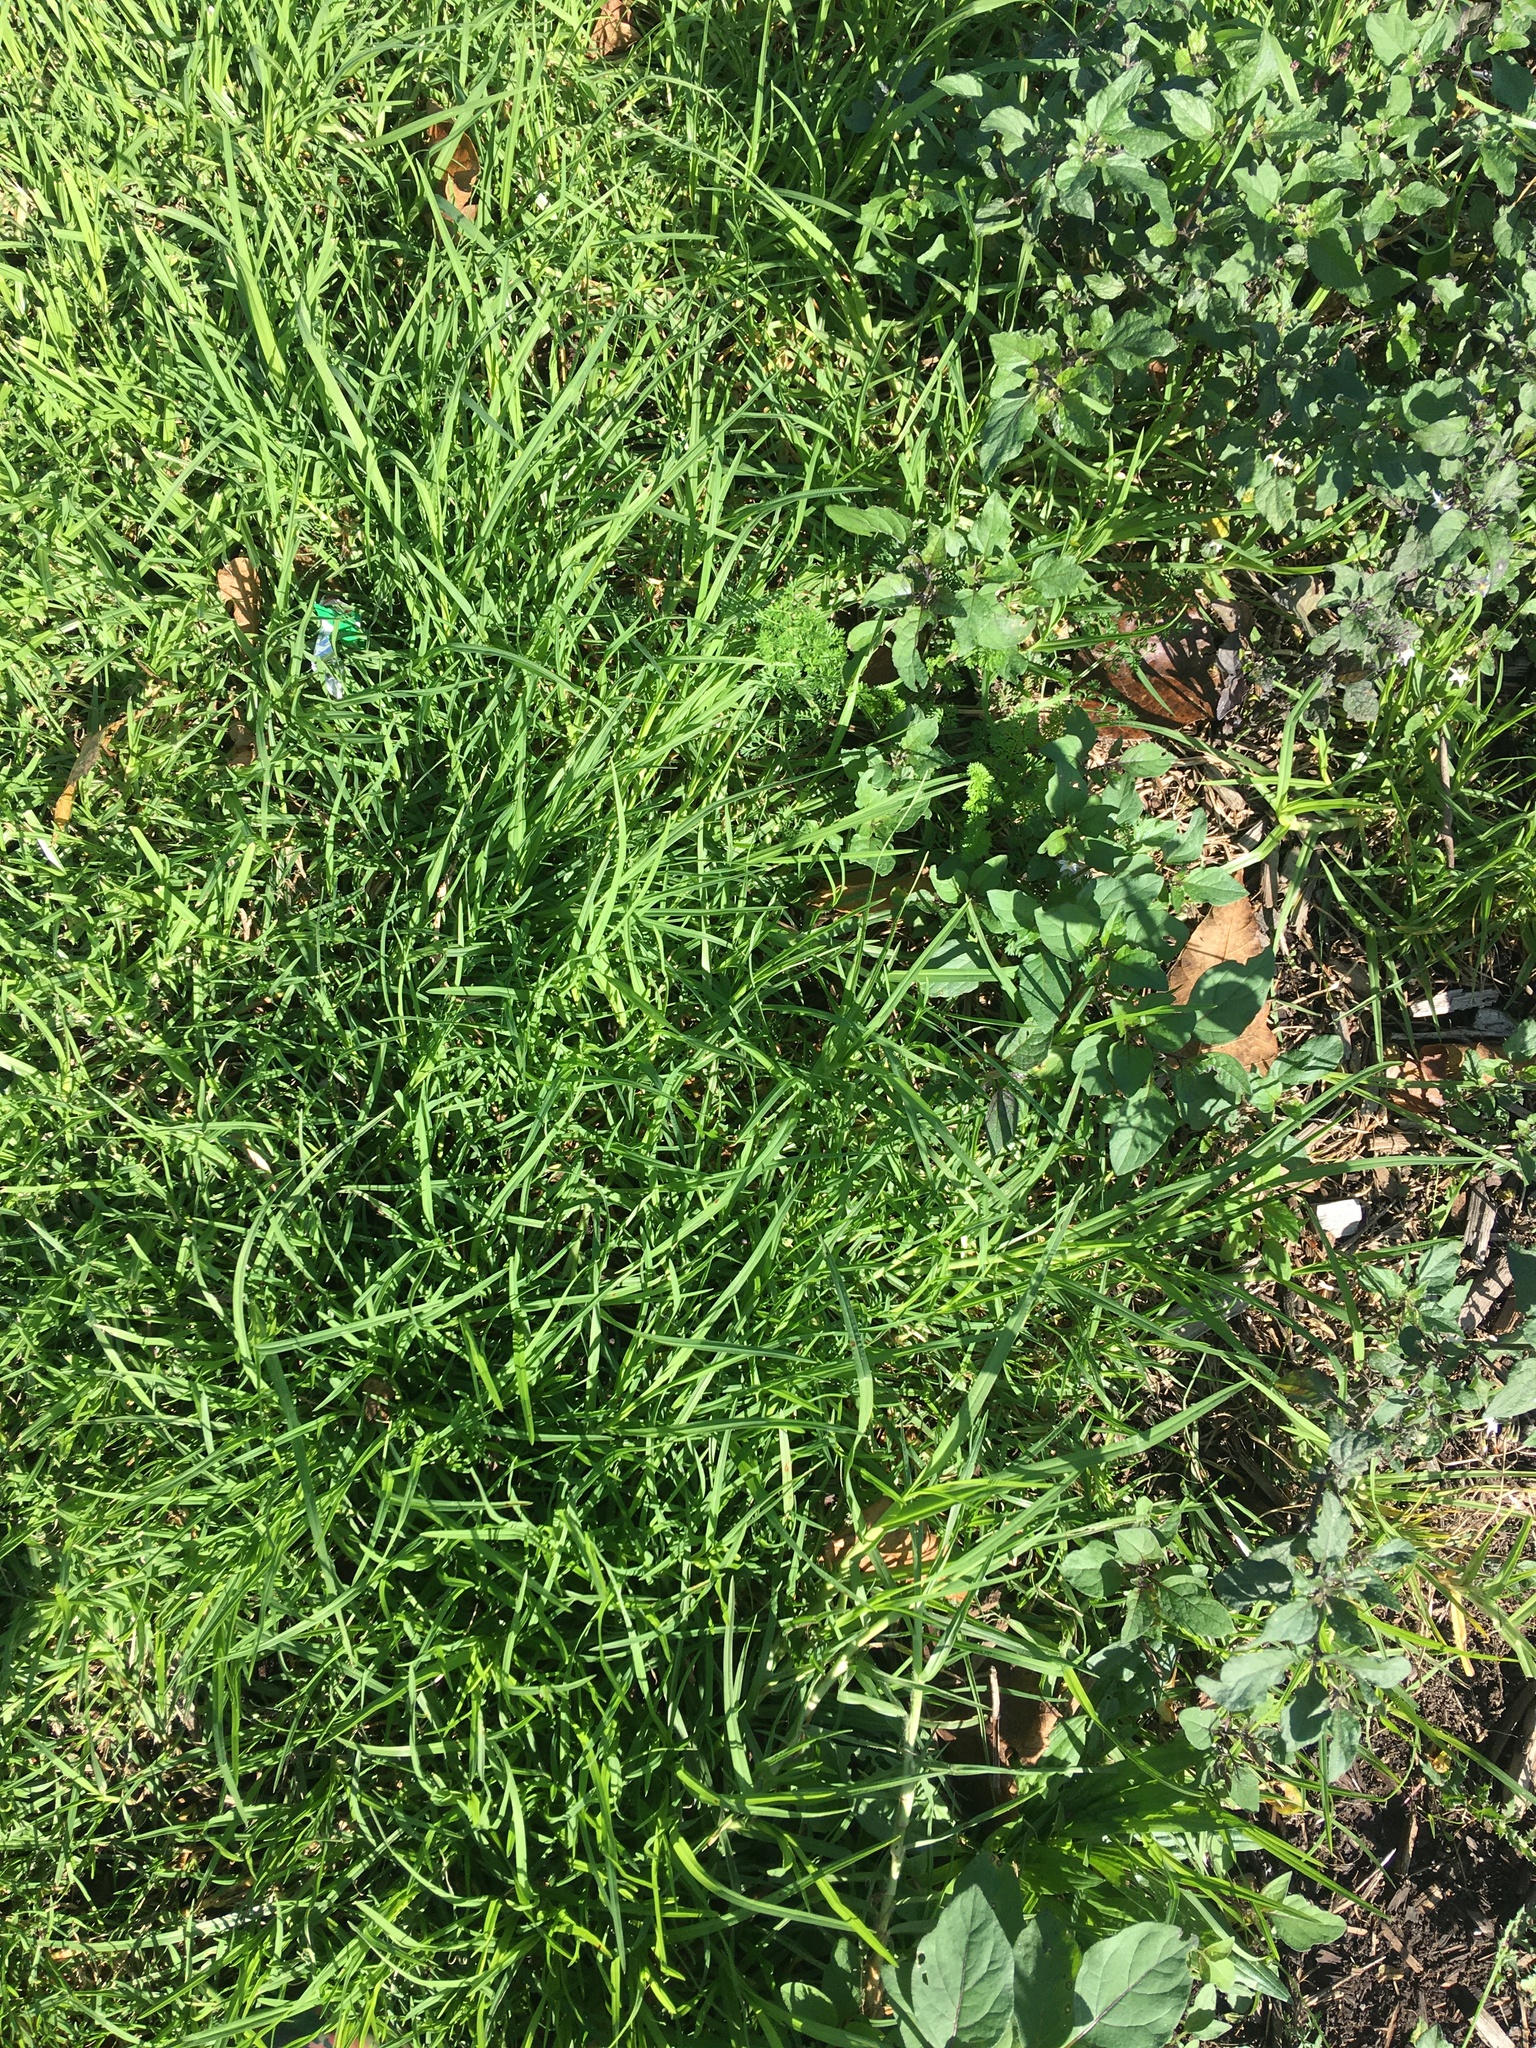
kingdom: Plantae
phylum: Tracheophyta
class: Liliopsida
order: Poales
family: Poaceae
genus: Cenchrus
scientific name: Cenchrus clandestinus
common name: Kikuyugrass
